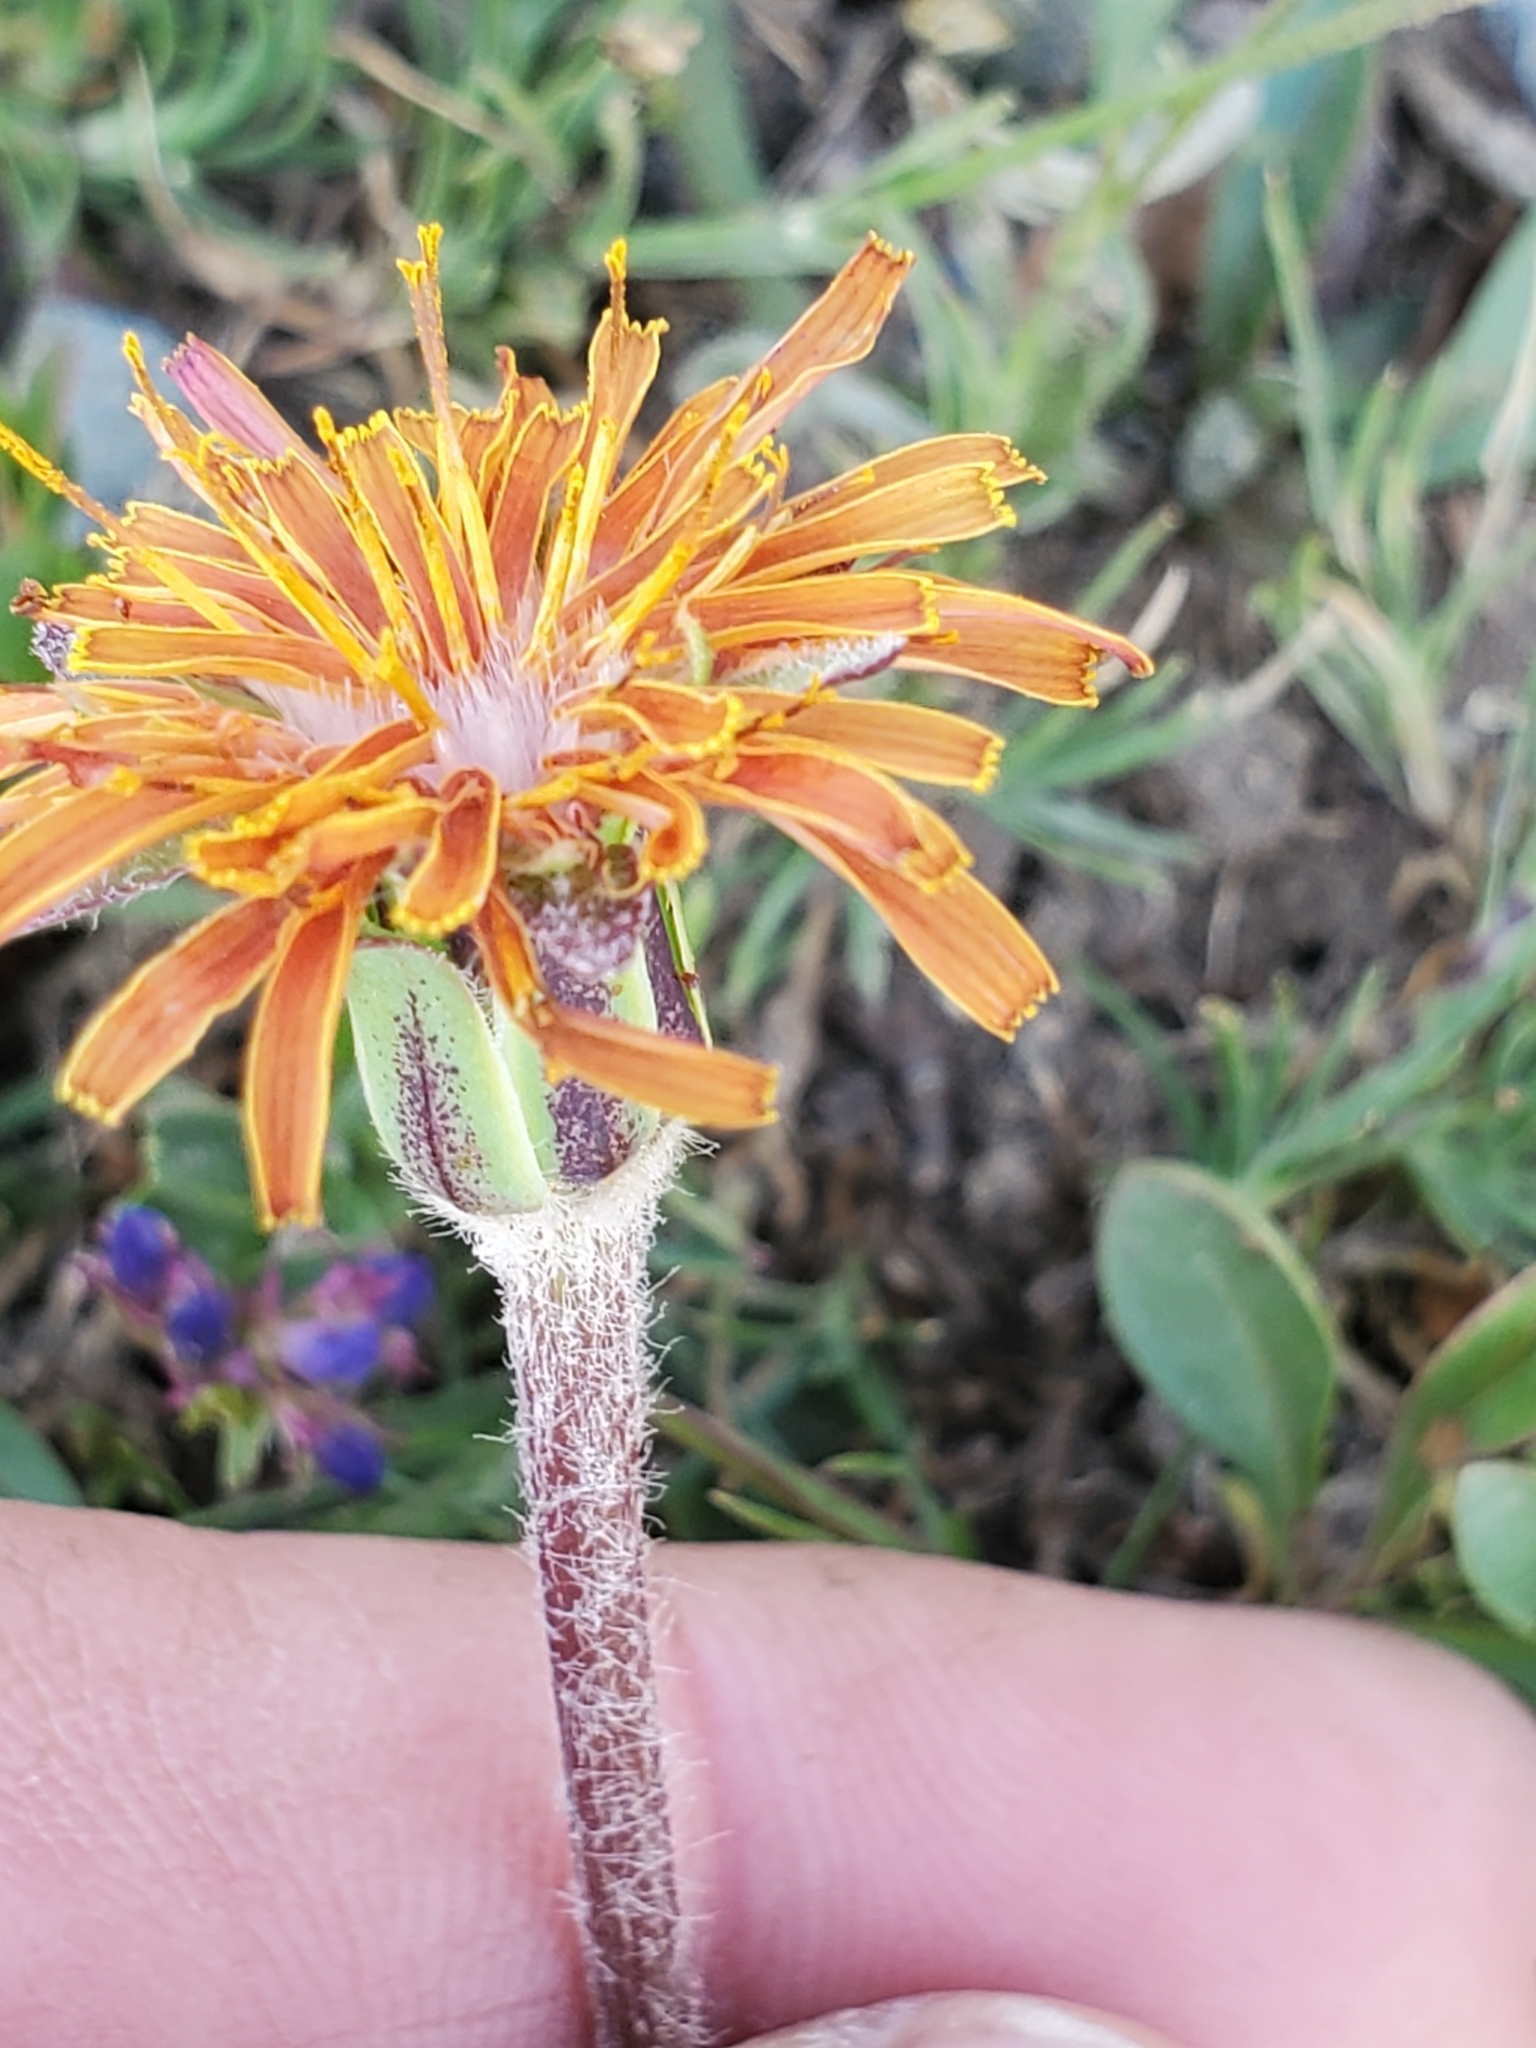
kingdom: Plantae
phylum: Tracheophyta
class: Magnoliopsida
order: Asterales
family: Asteraceae
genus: Agoseris
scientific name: Agoseris aurantiaca
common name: Mountain agoseris
